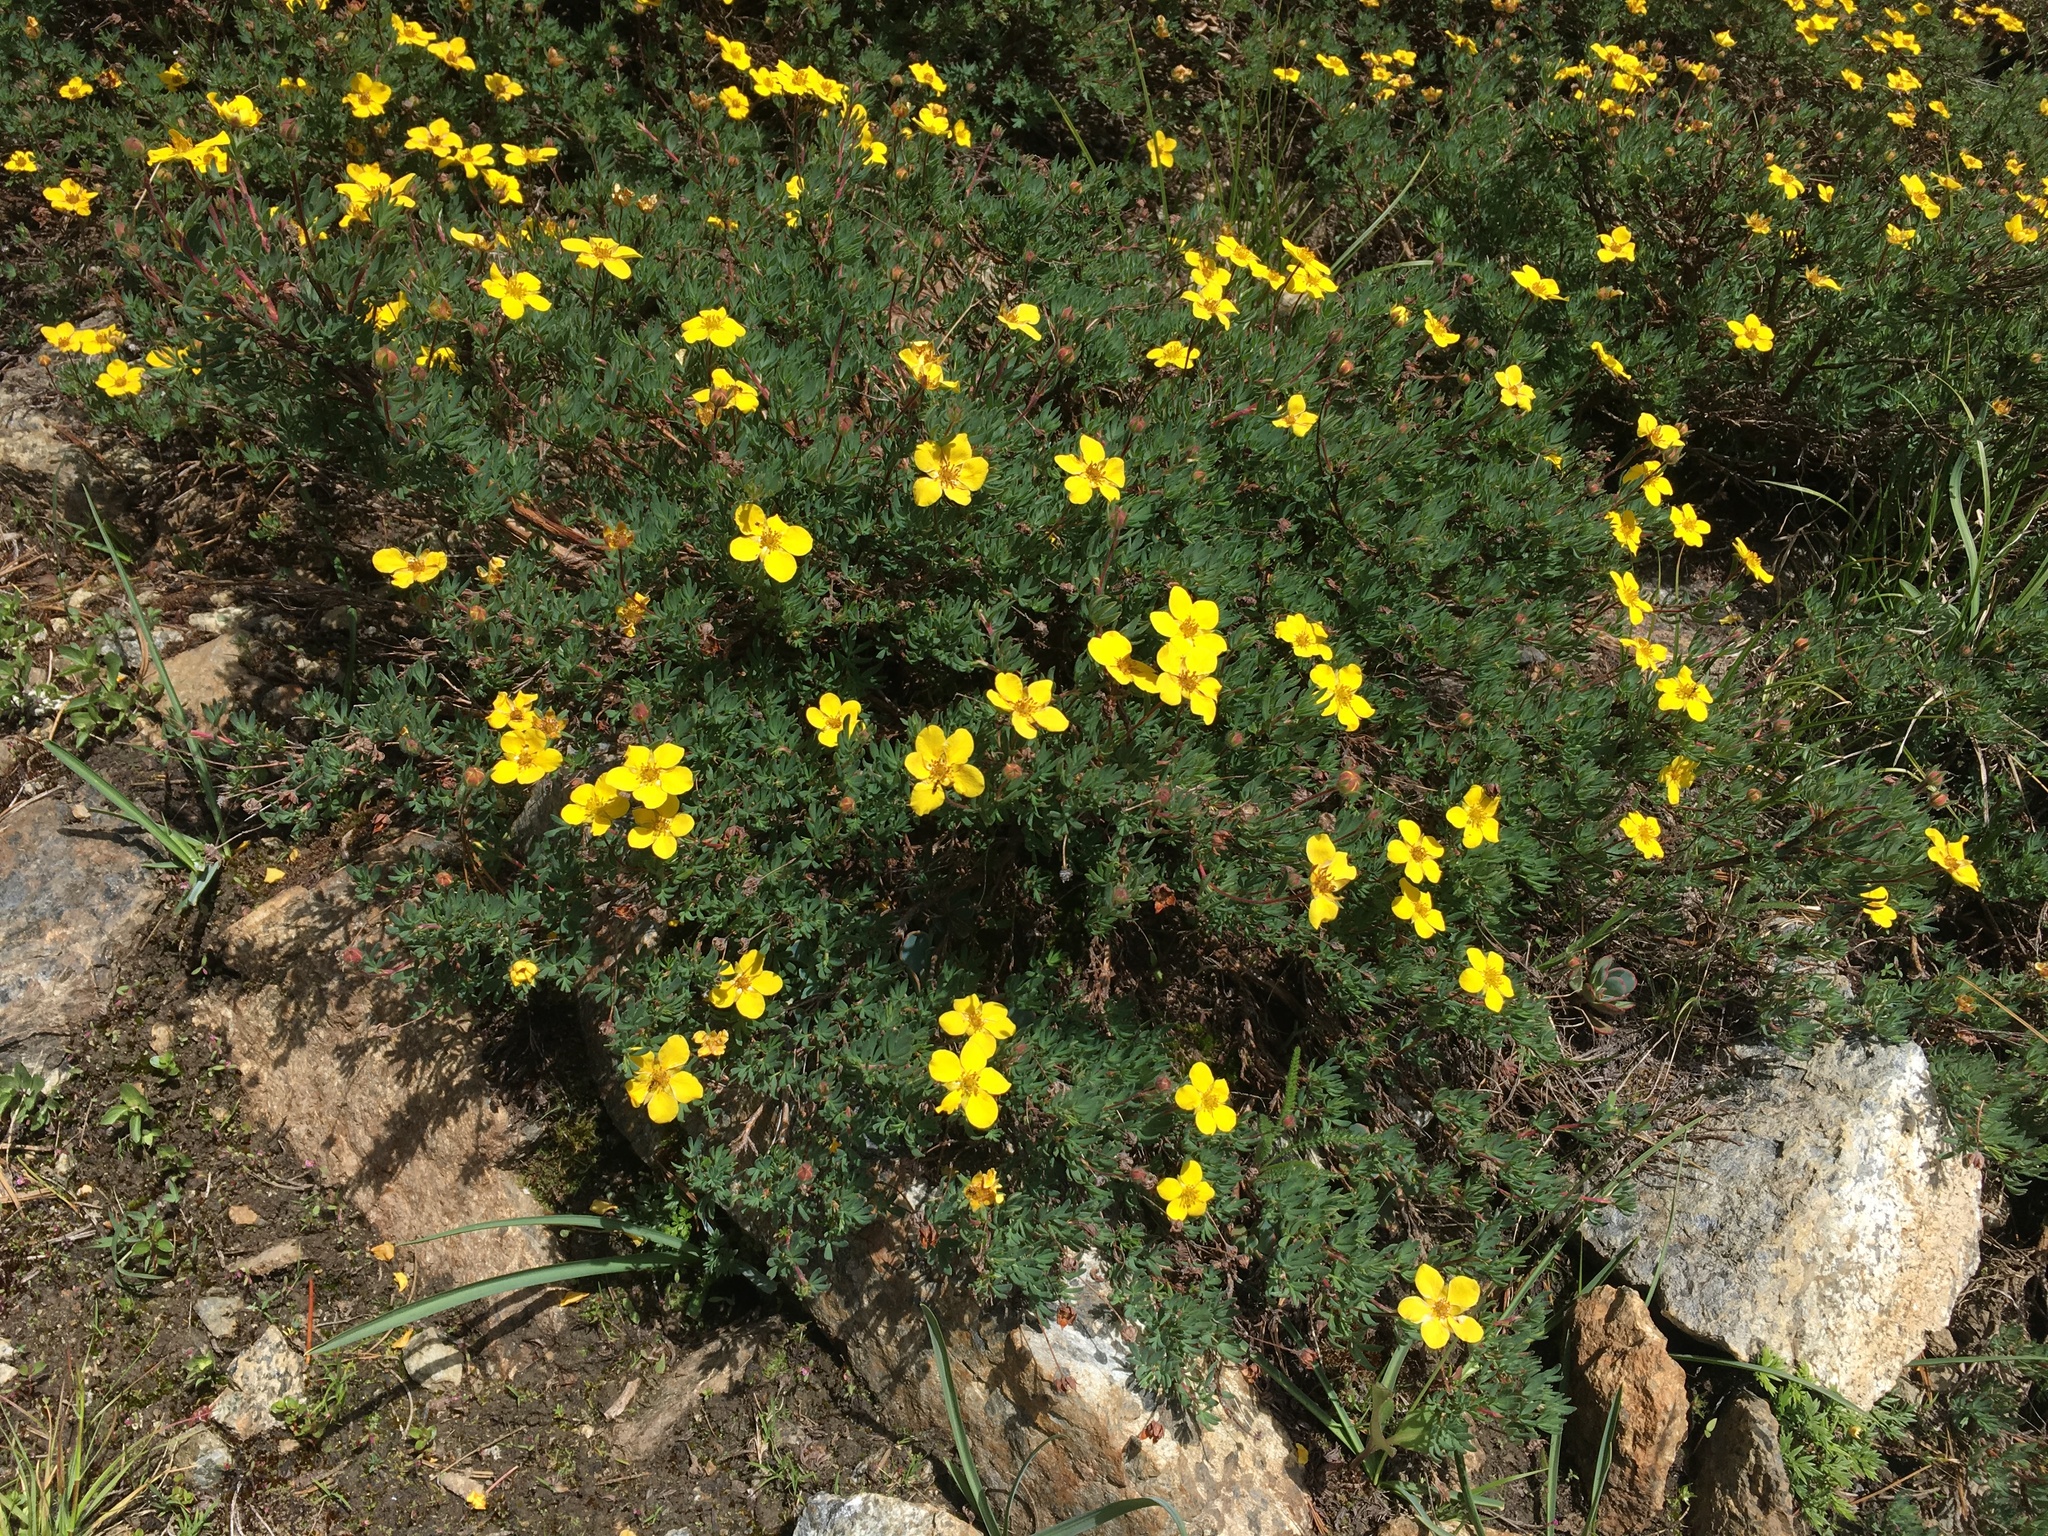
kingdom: Plantae
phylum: Tracheophyta
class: Magnoliopsida
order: Rosales
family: Rosaceae
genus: Dasiphora
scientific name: Dasiphora fruticosa
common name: Shrubby cinquefoil
